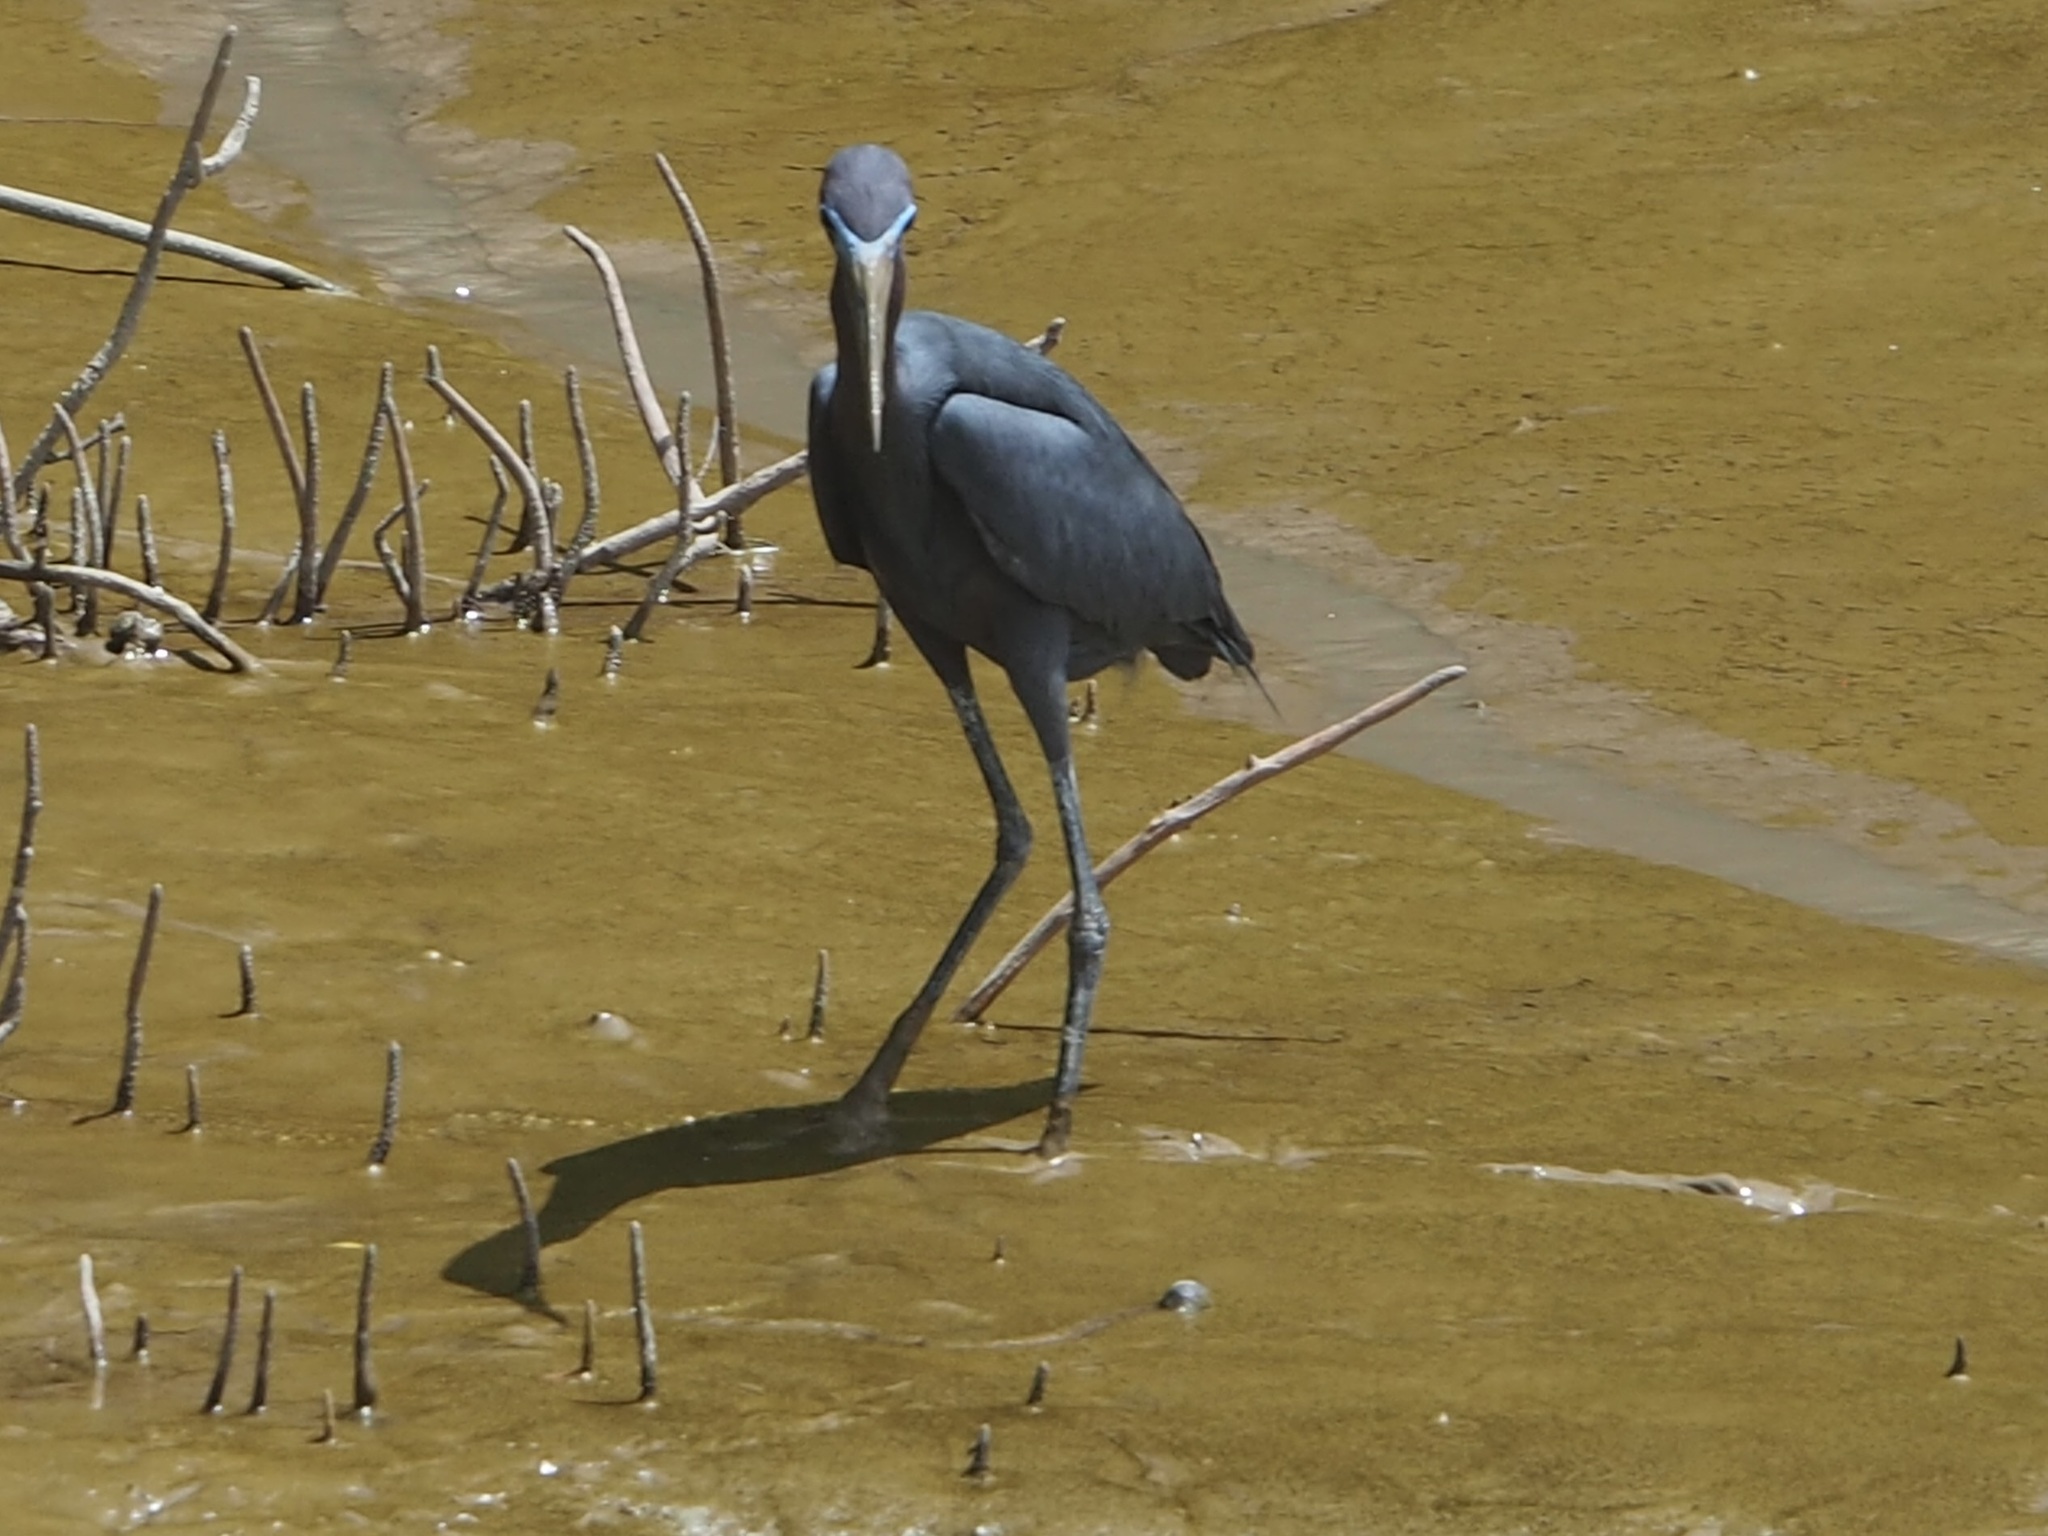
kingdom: Animalia
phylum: Chordata
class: Aves
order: Pelecaniformes
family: Ardeidae
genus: Egretta
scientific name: Egretta caerulea
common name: Little blue heron
